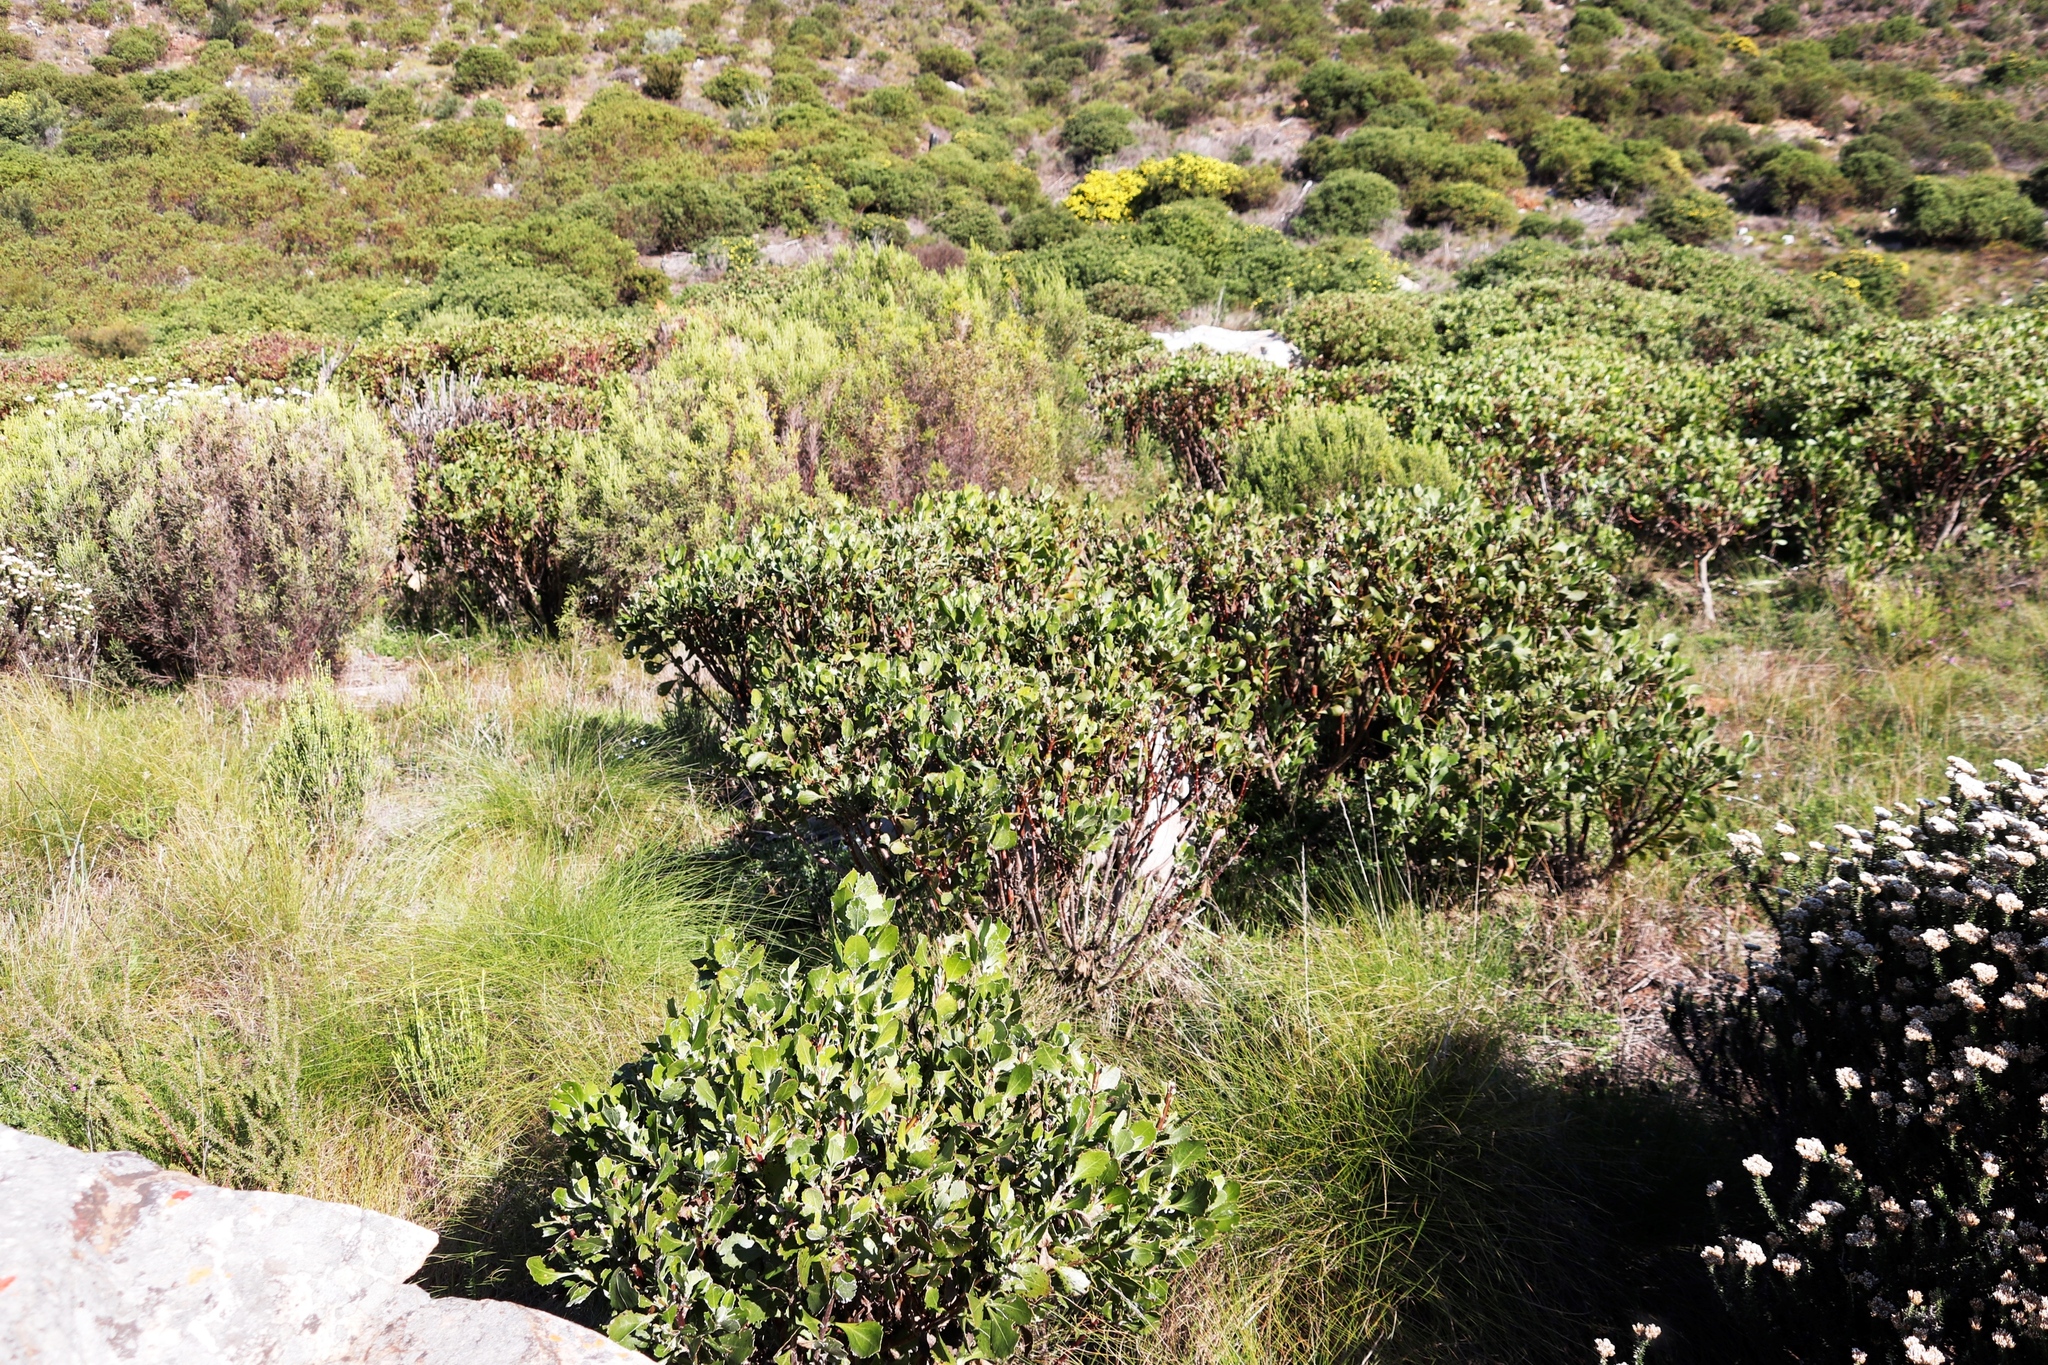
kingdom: Plantae
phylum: Tracheophyta
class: Magnoliopsida
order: Asterales
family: Asteraceae
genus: Osteospermum
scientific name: Osteospermum moniliferum
